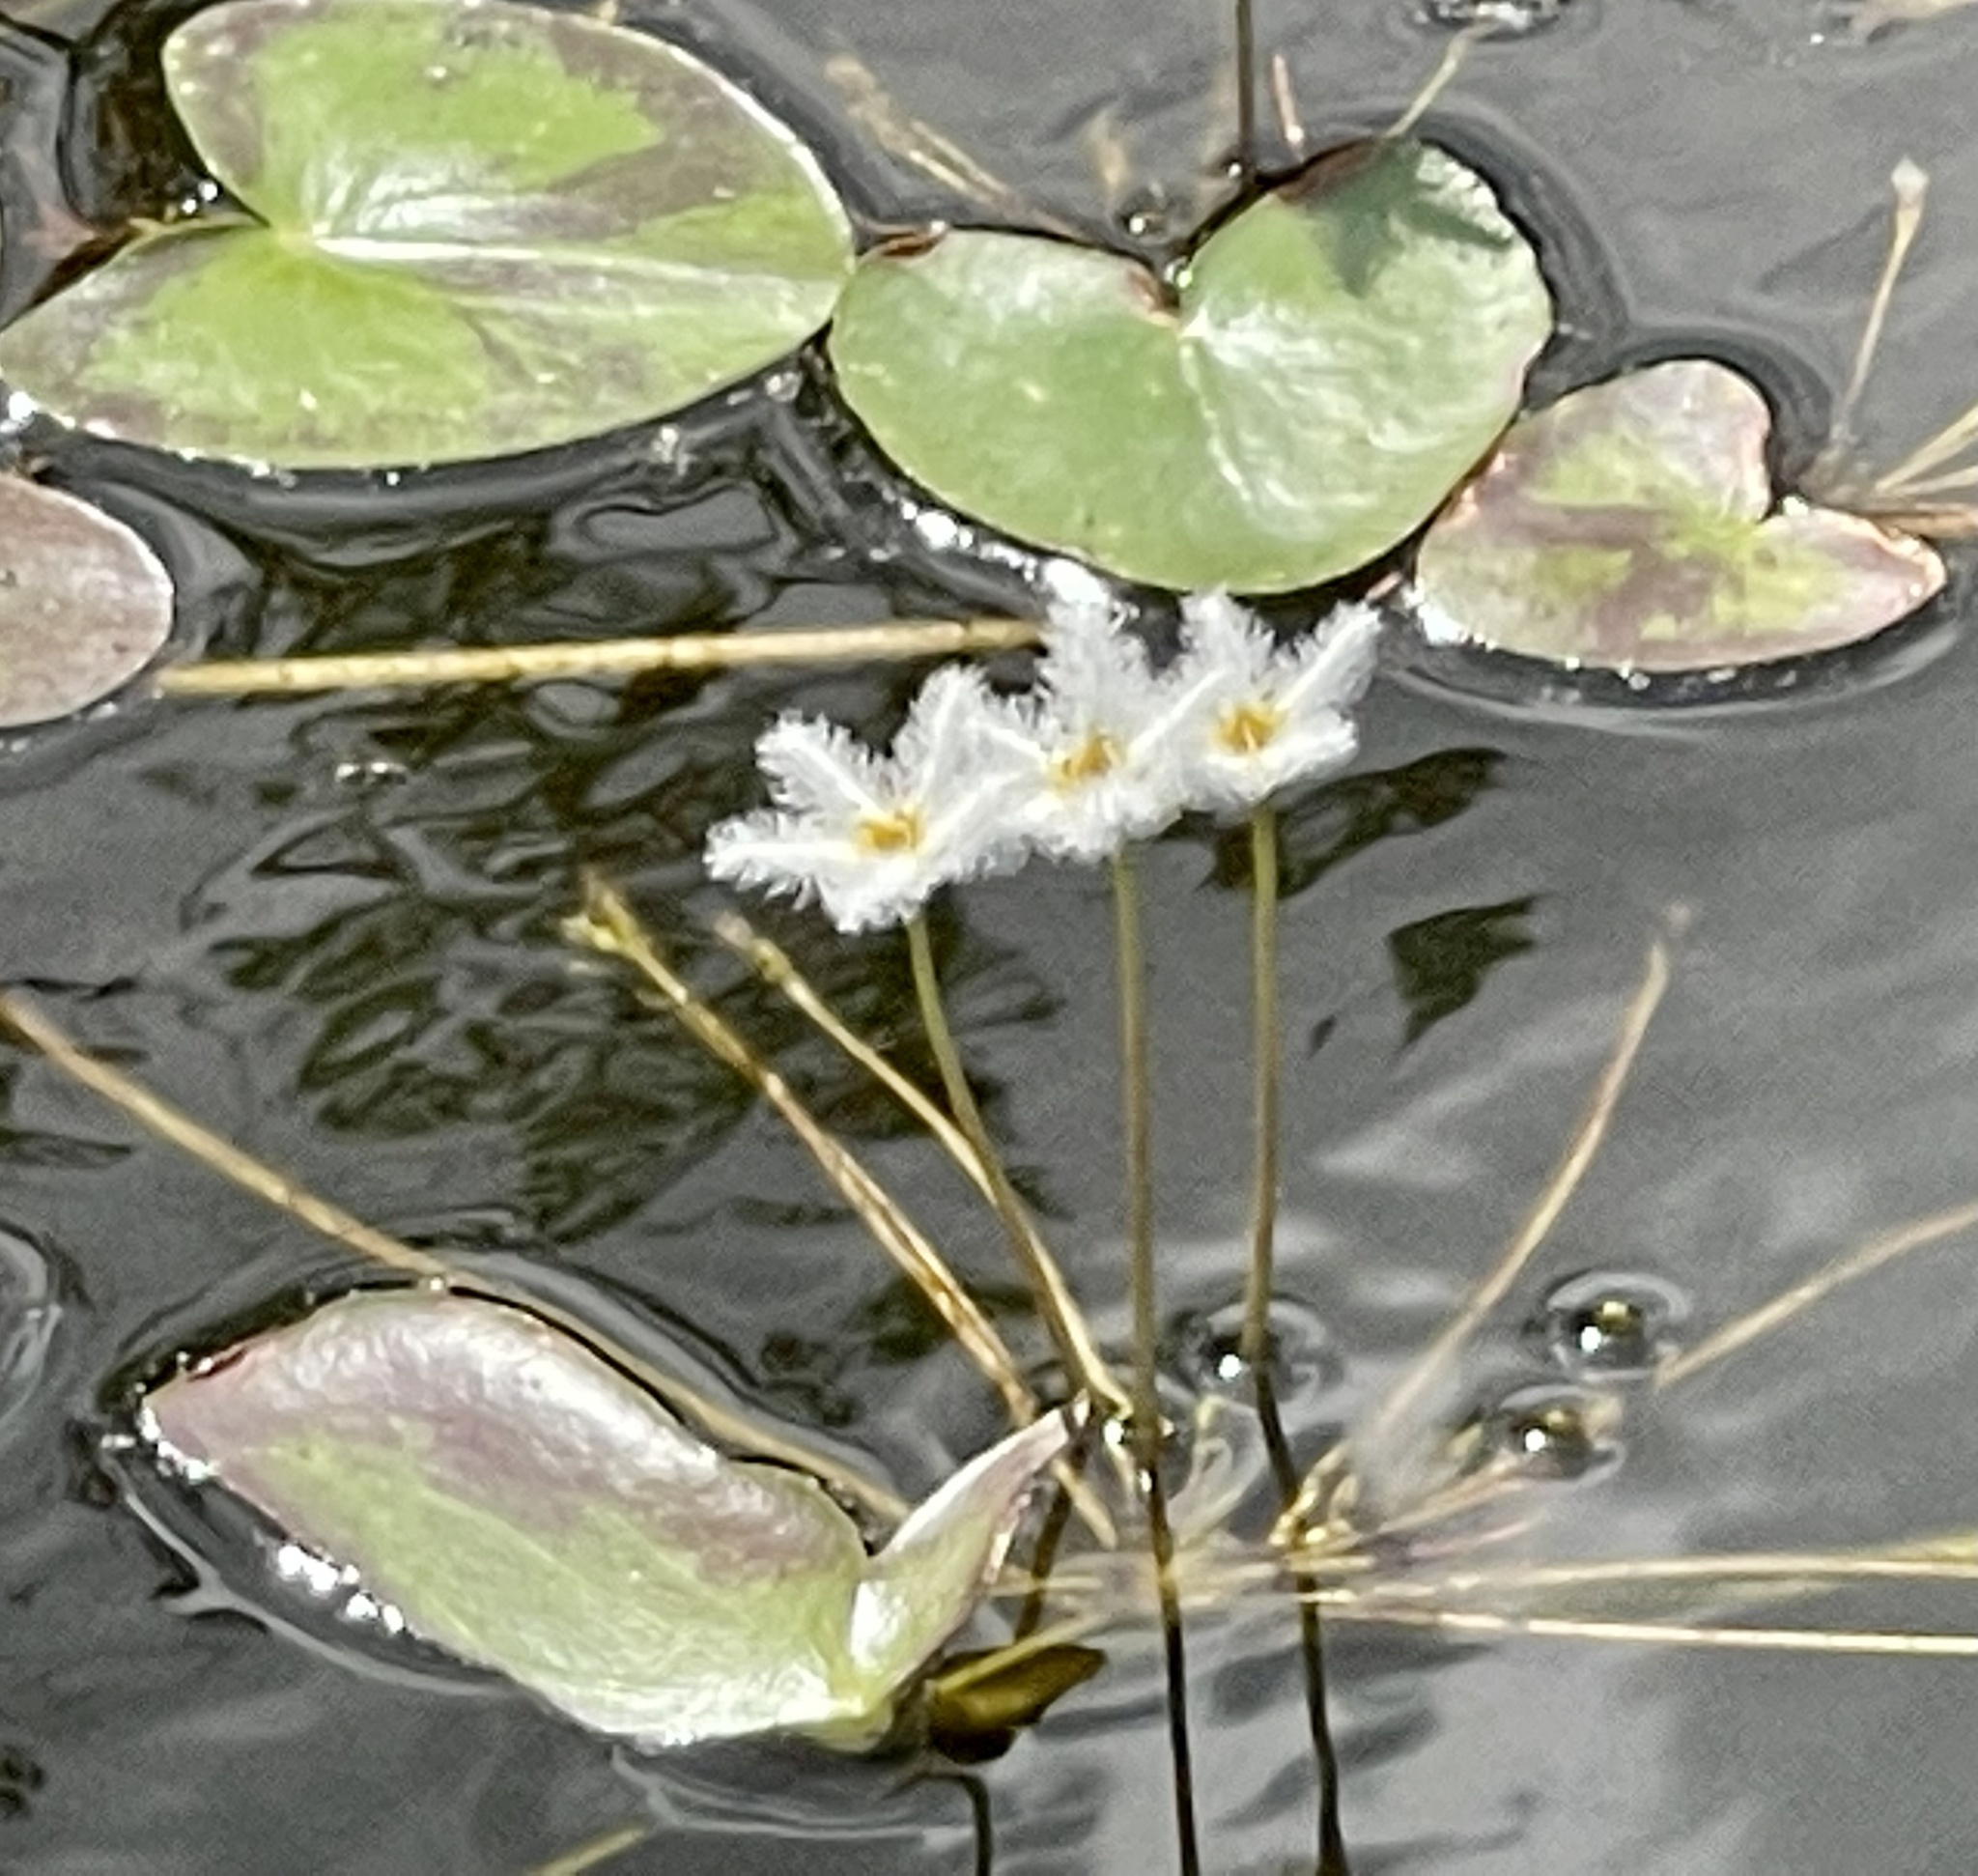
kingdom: Plantae
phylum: Tracheophyta
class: Magnoliopsida
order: Asterales
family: Menyanthaceae
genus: Nymphoides
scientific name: Nymphoides indica
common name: Water-snowflake
